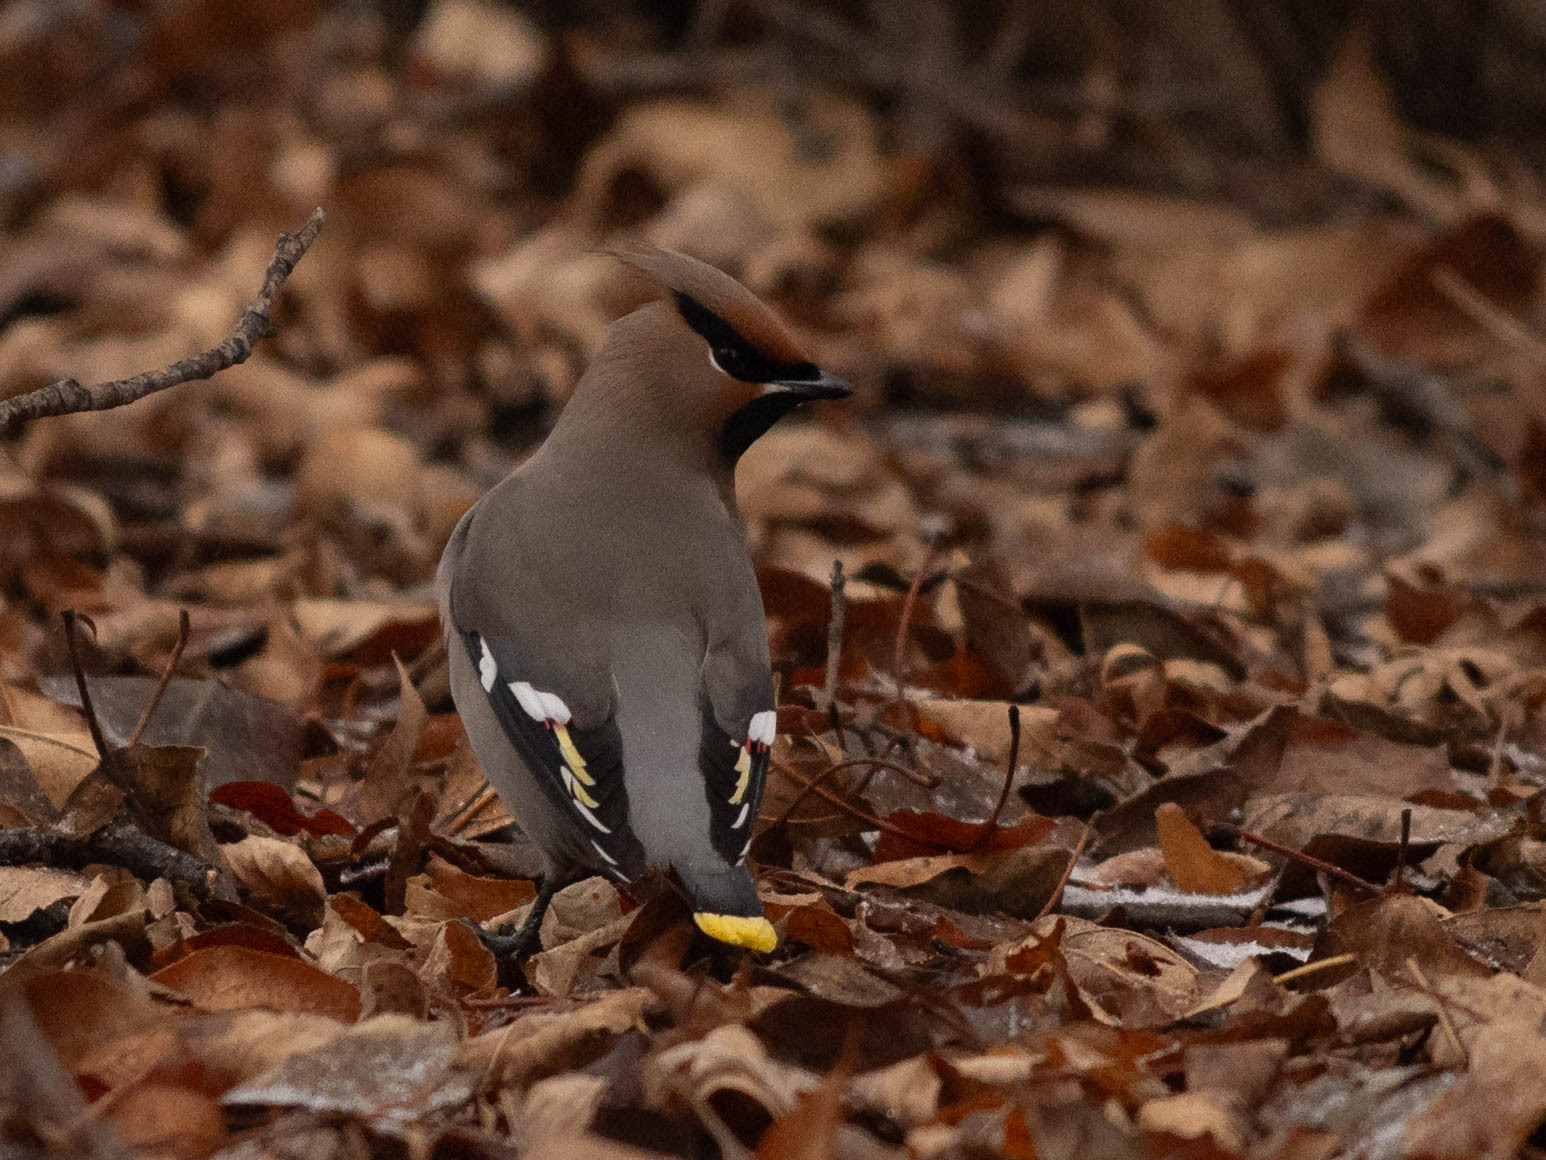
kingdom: Animalia
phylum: Chordata
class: Aves
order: Passeriformes
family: Bombycillidae
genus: Bombycilla
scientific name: Bombycilla garrulus
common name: Bohemian waxwing
